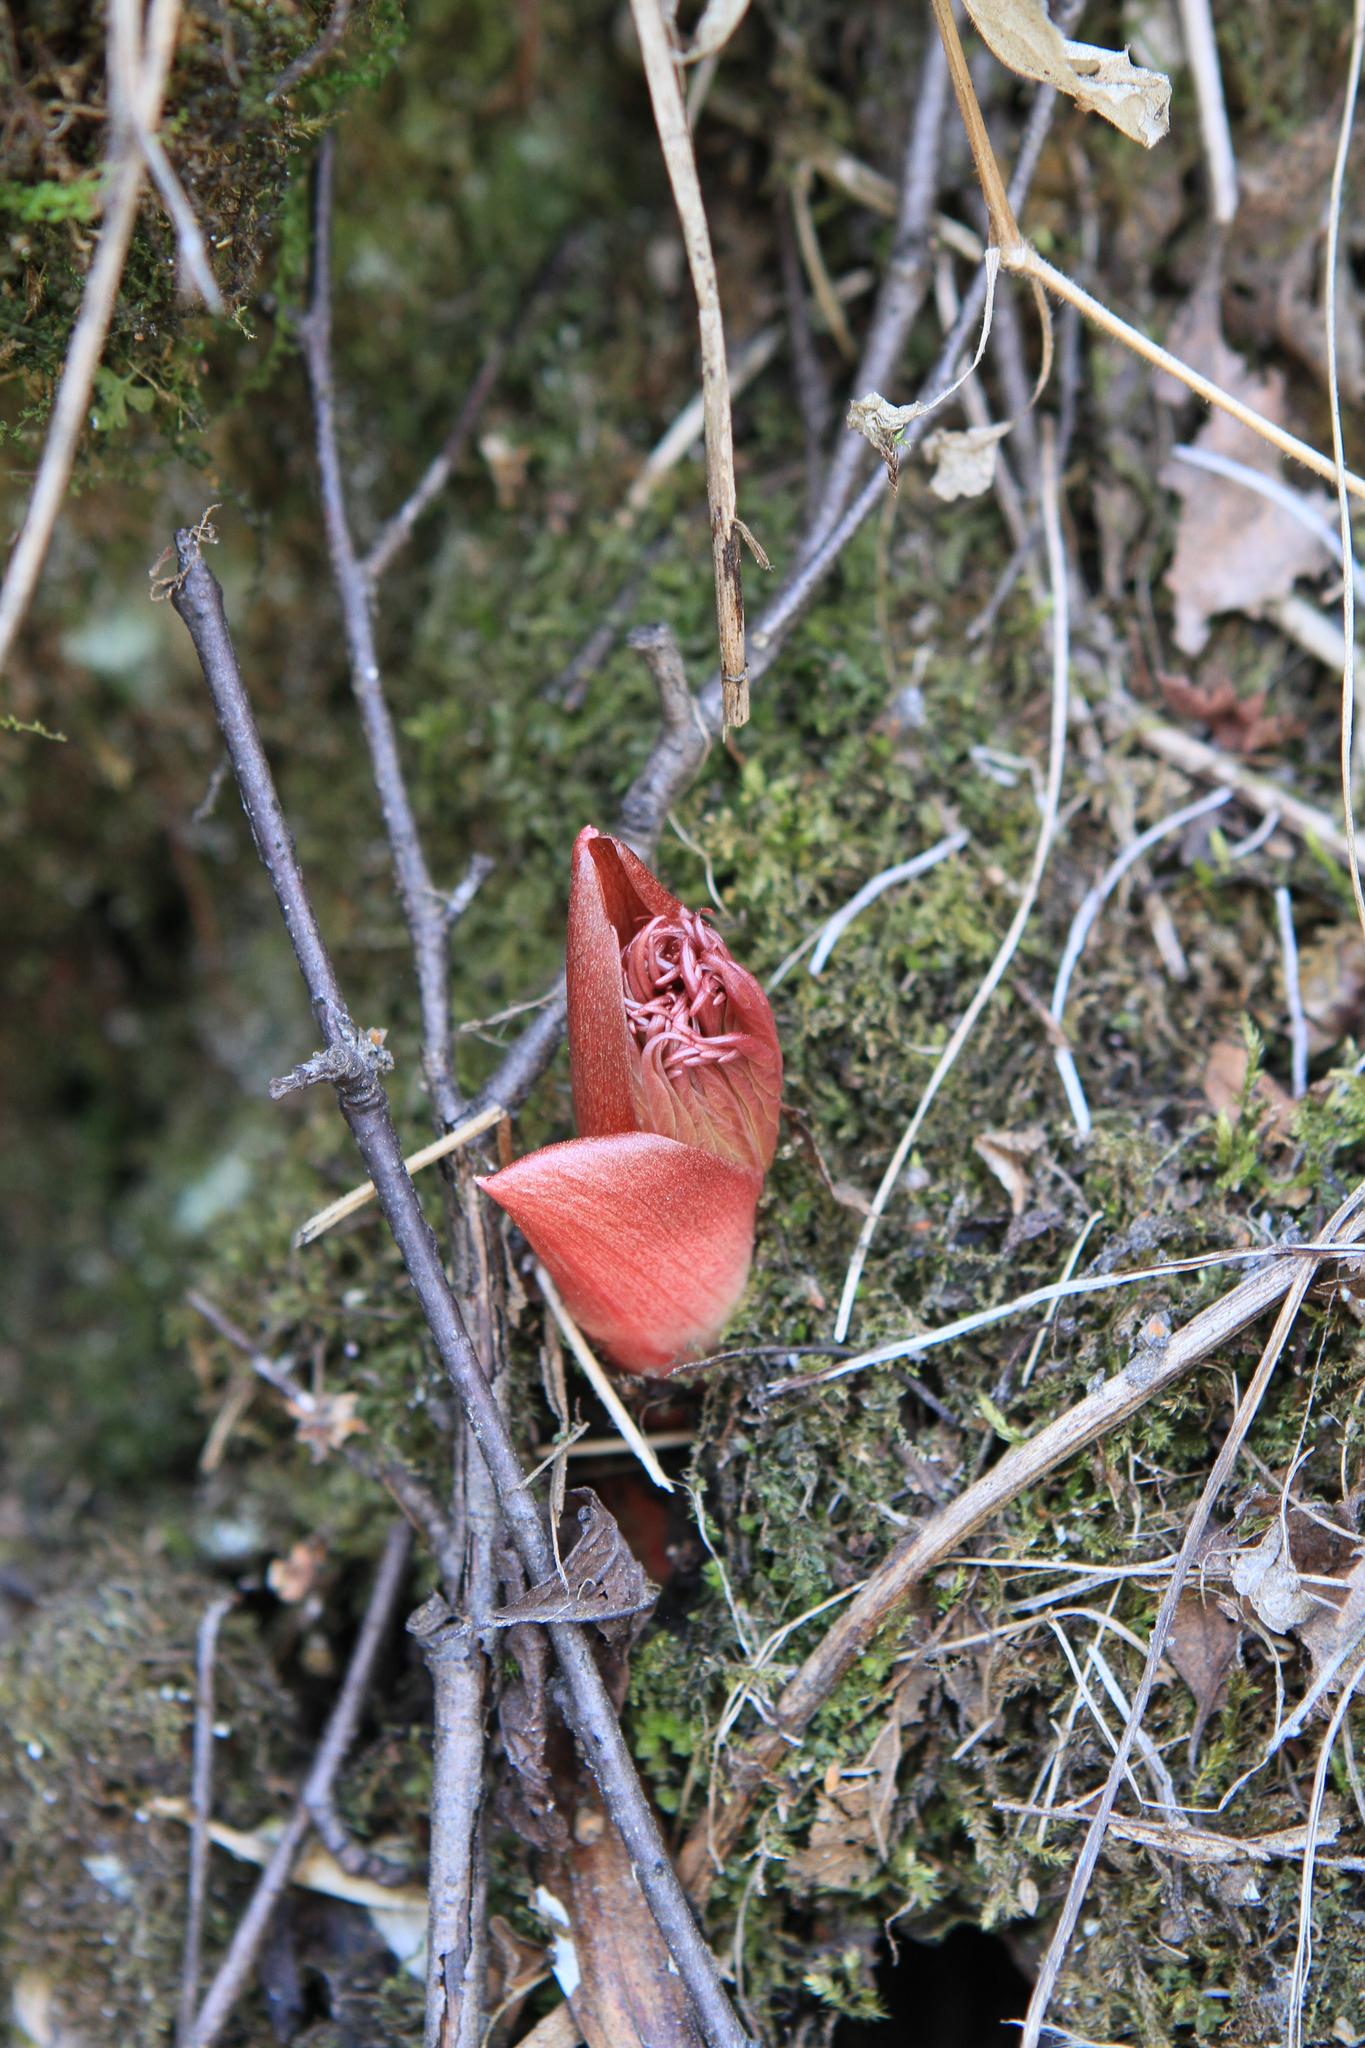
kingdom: Plantae
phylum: Tracheophyta
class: Magnoliopsida
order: Saxifragales
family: Paeoniaceae
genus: Paeonia
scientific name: Paeonia anomala
